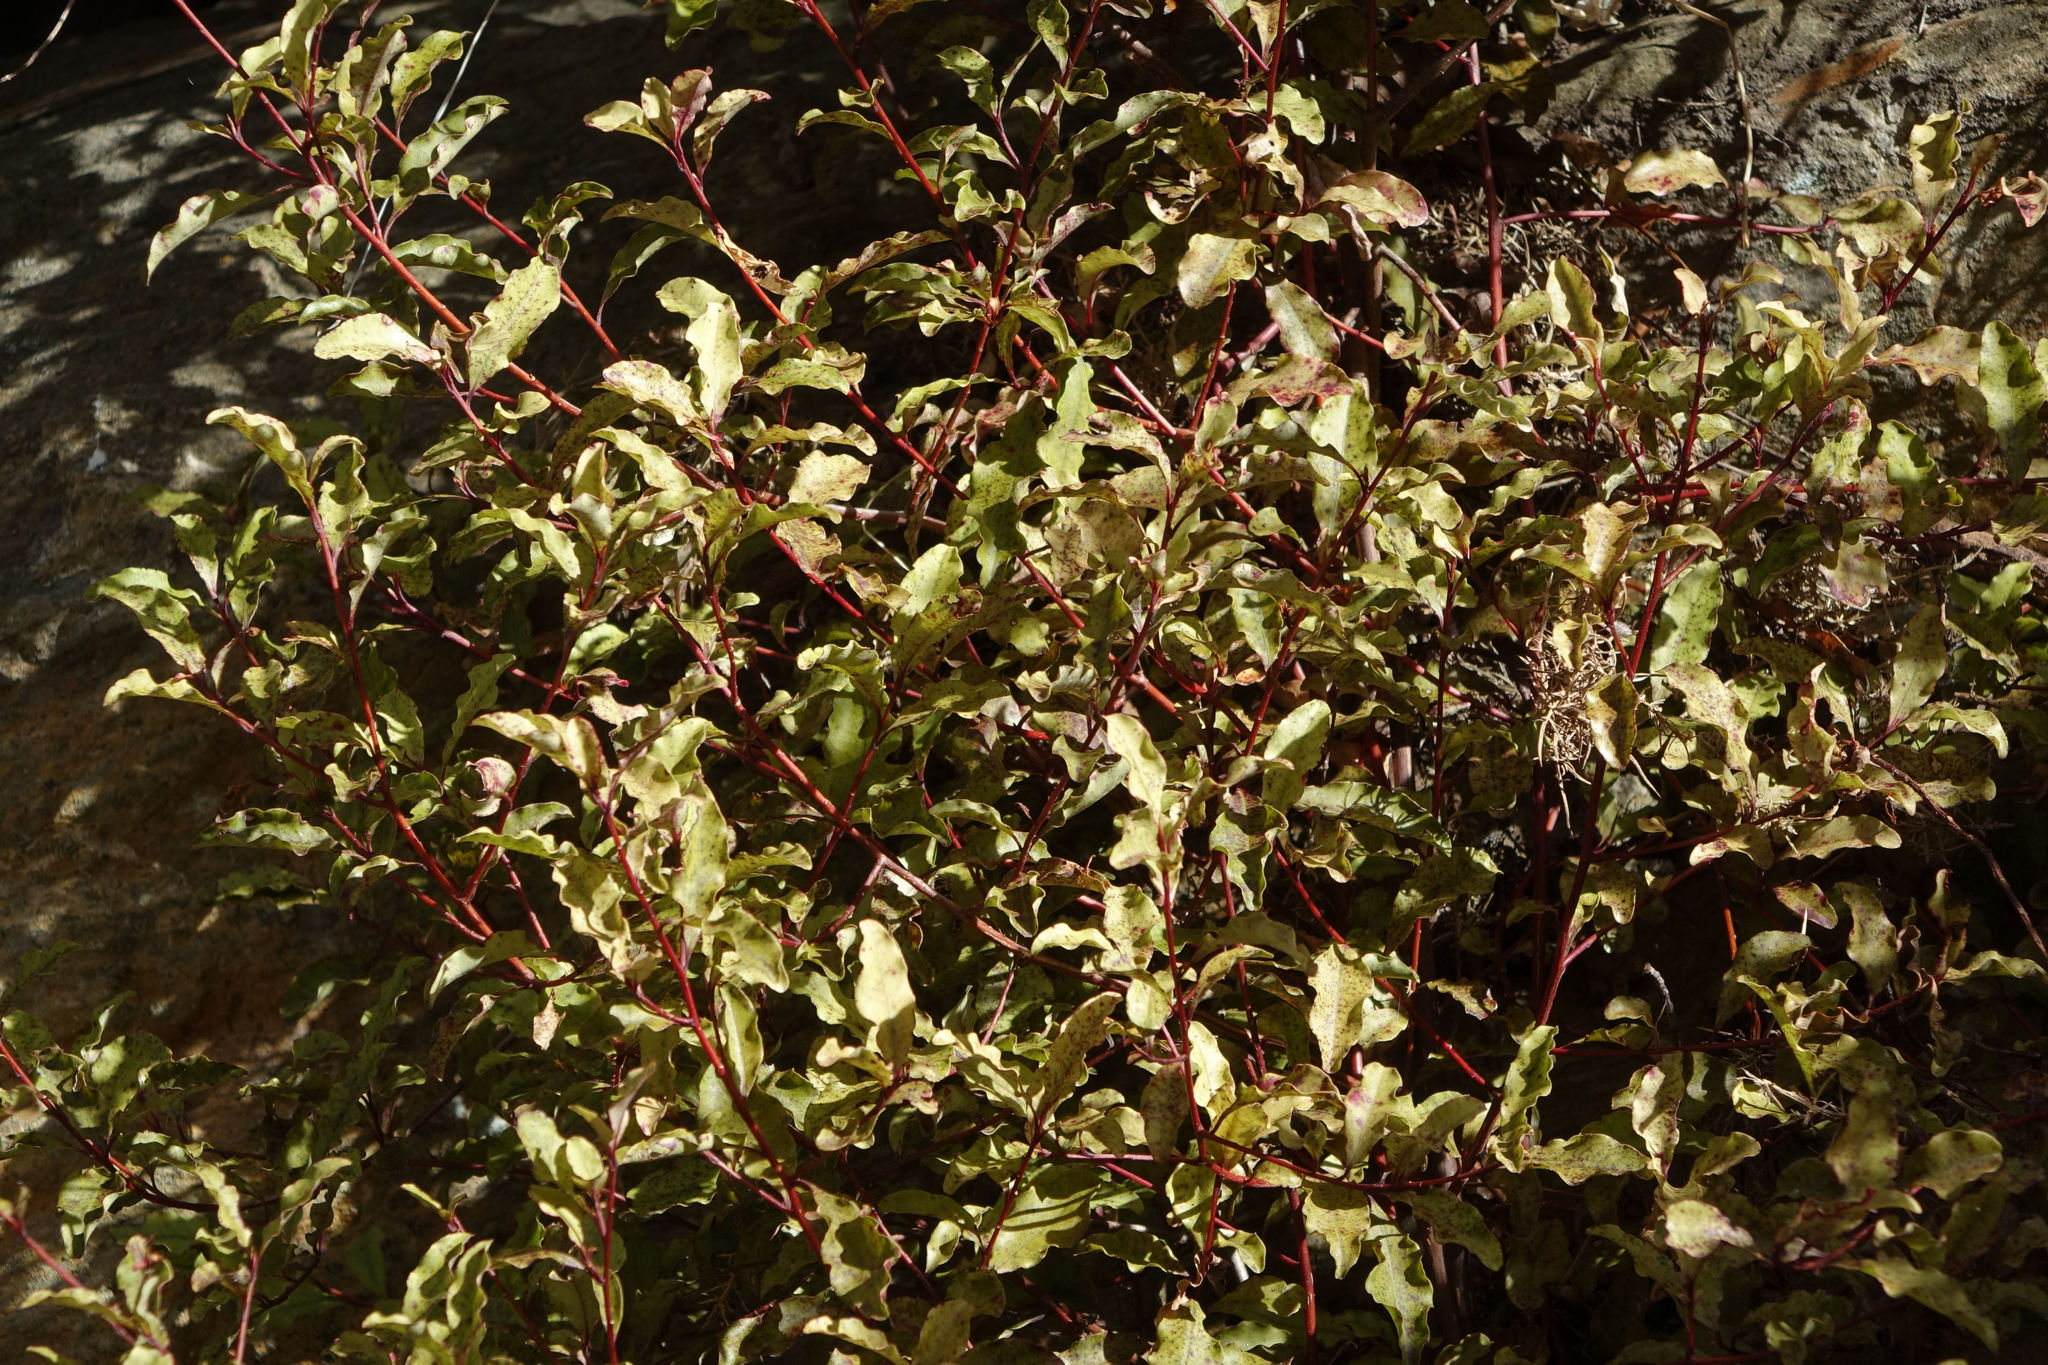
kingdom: Plantae
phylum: Tracheophyta
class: Magnoliopsida
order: Ericales
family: Primulaceae
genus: Myrsine
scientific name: Myrsine australis
